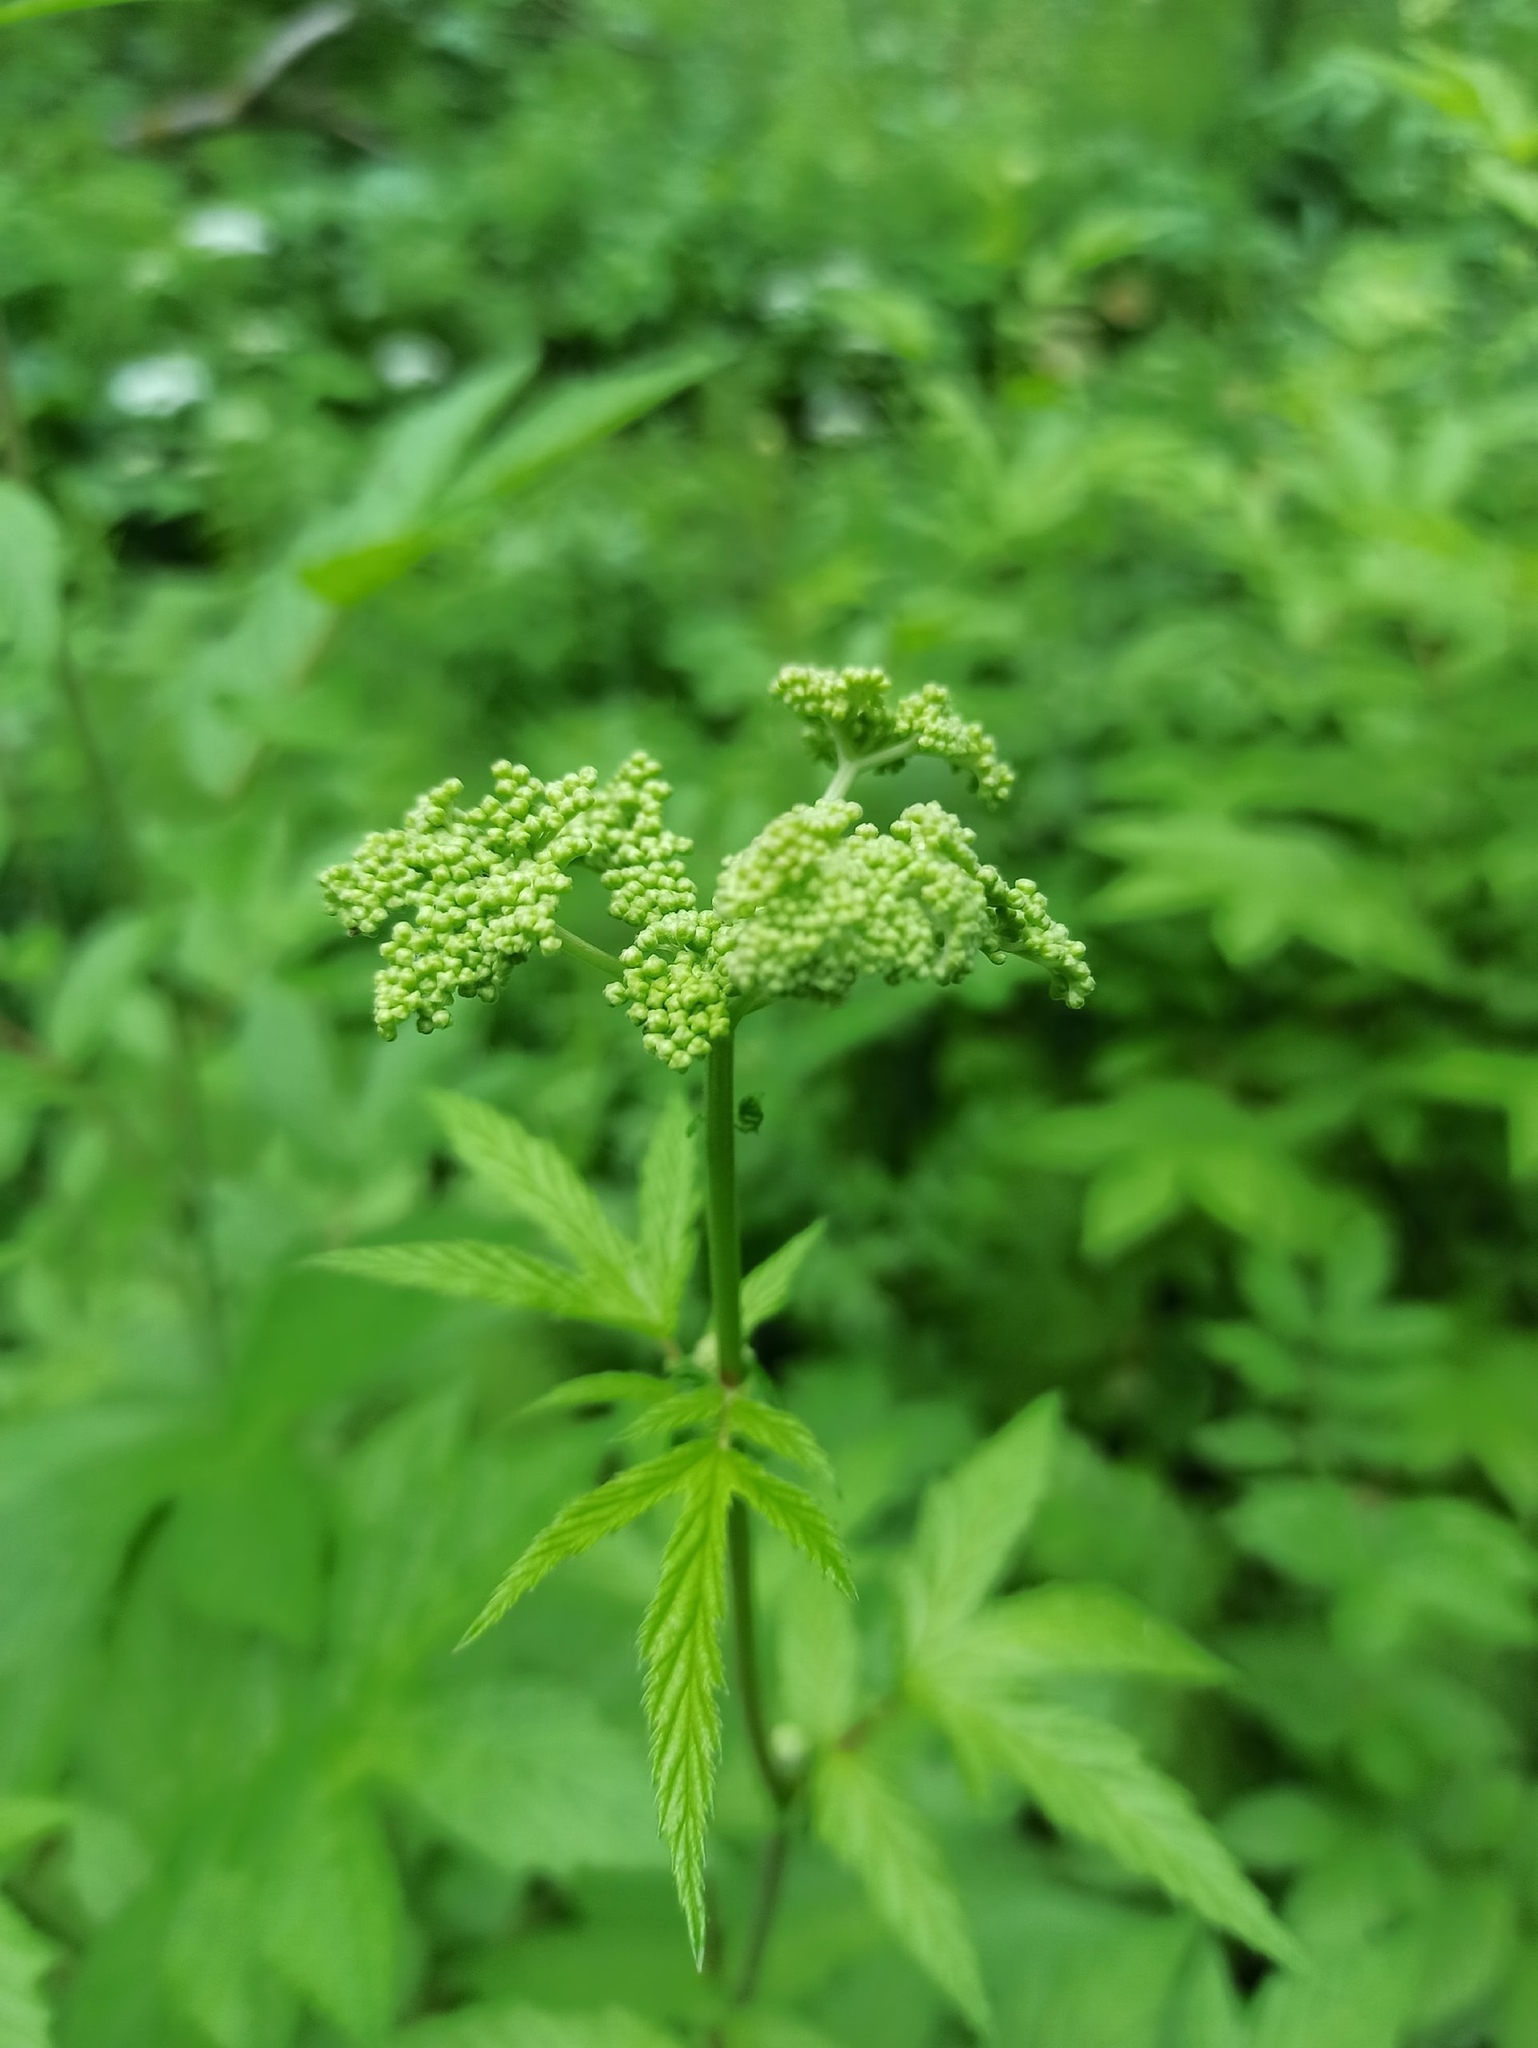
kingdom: Plantae
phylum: Tracheophyta
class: Magnoliopsida
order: Rosales
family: Rosaceae
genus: Filipendula
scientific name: Filipendula ulmaria
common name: Meadowsweet
